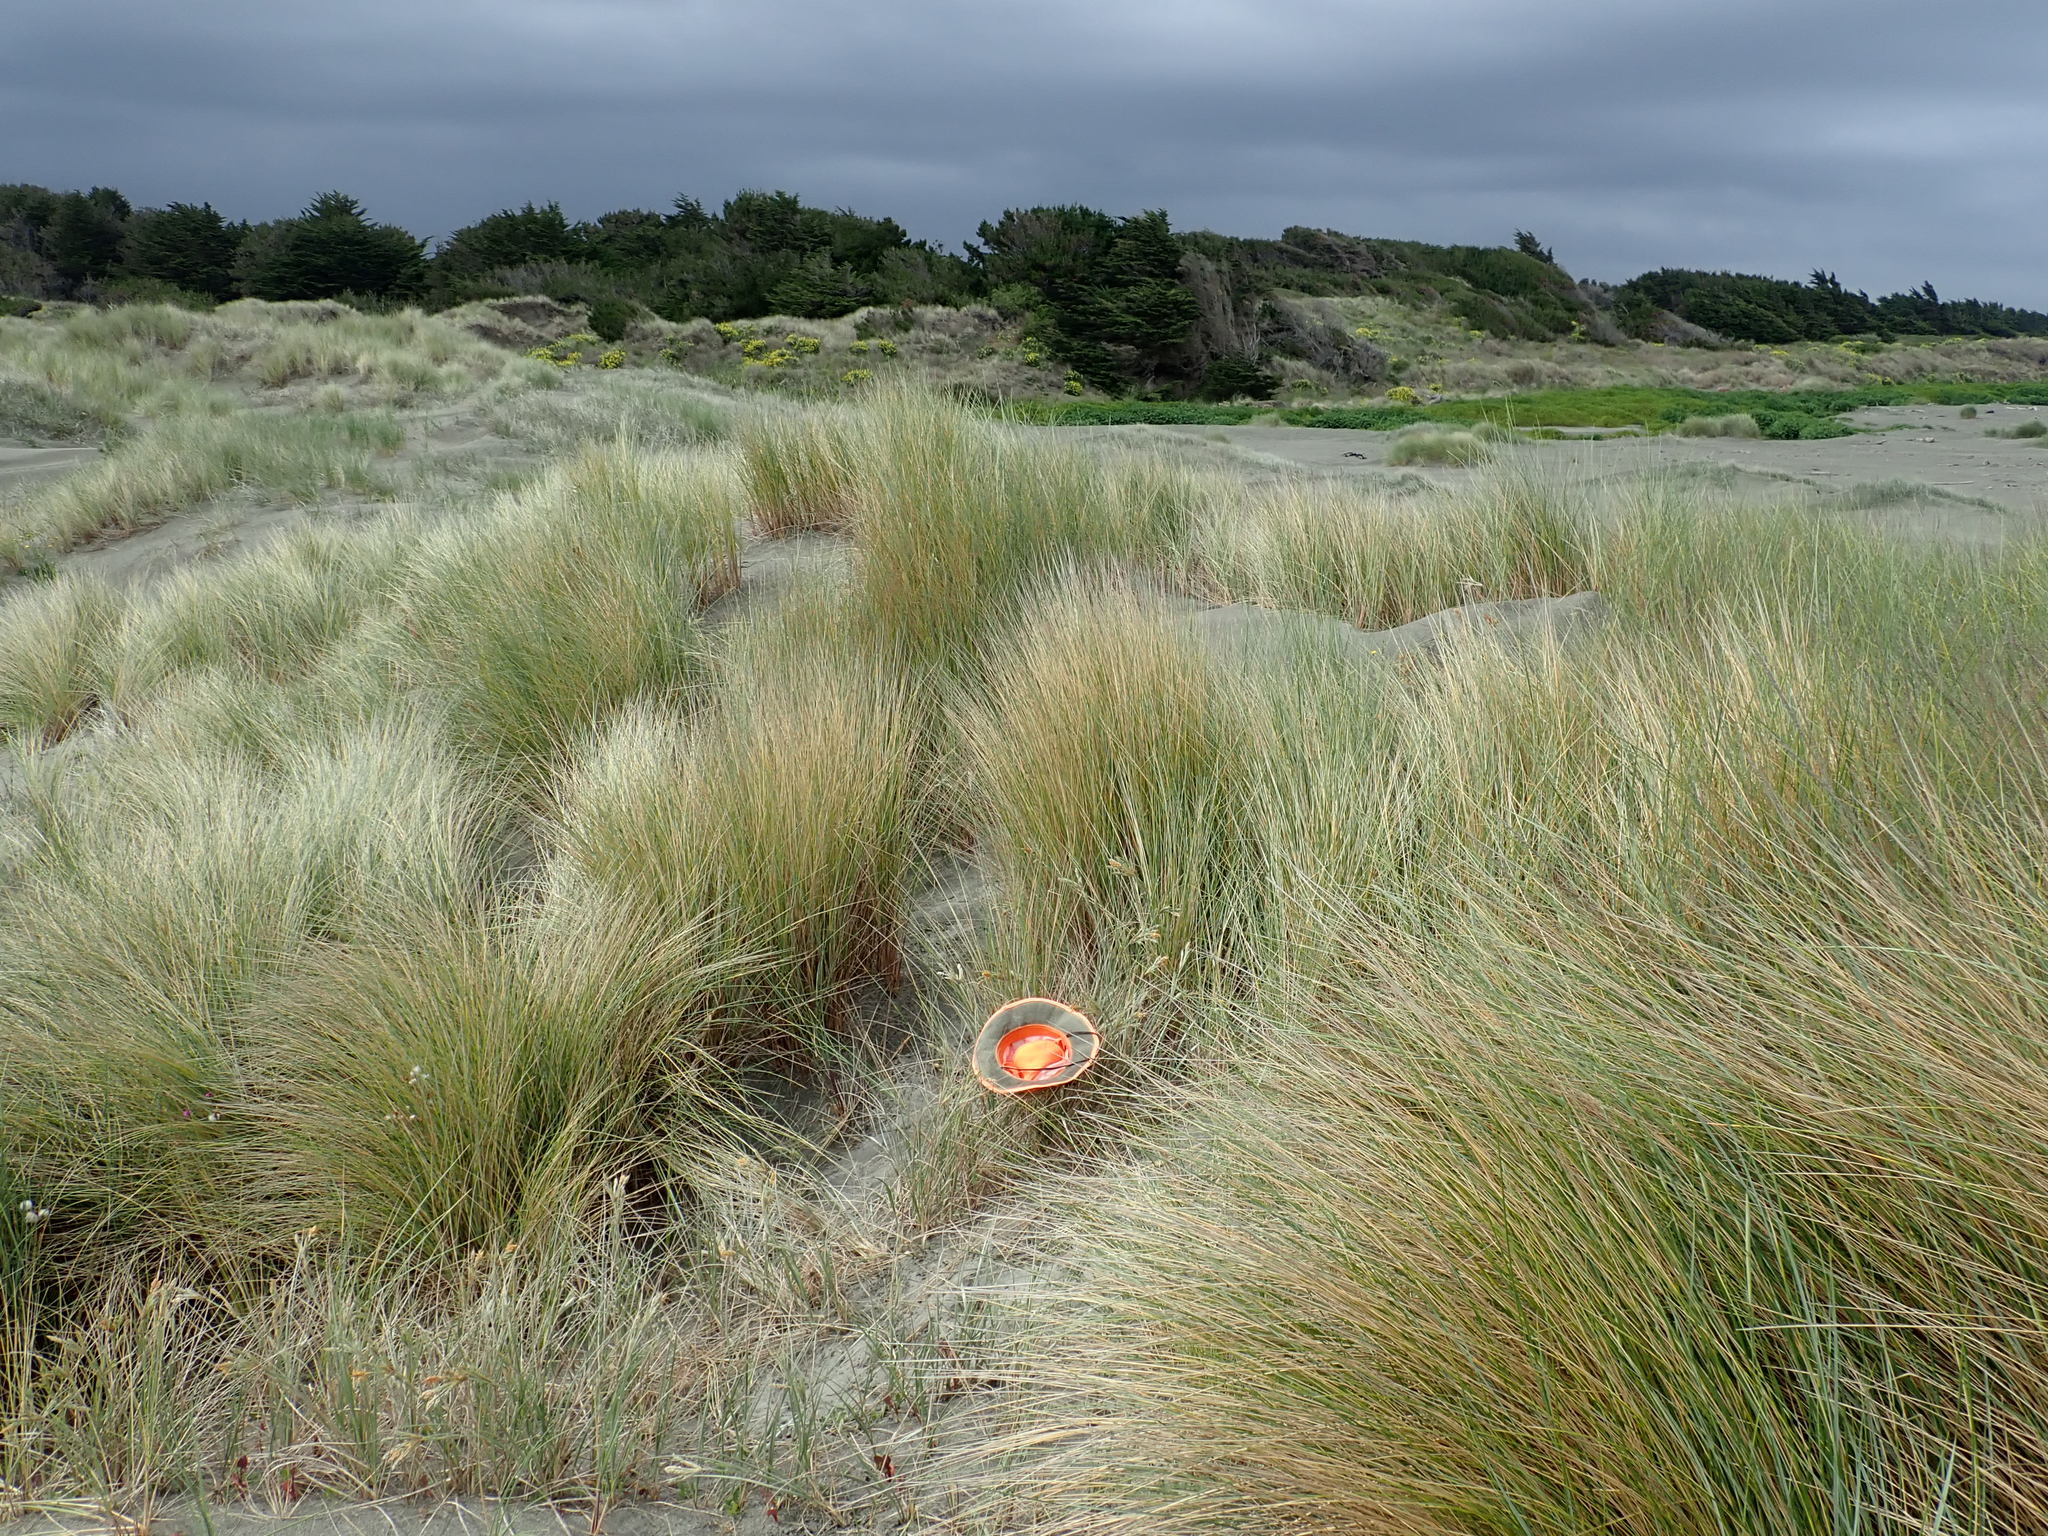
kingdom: Plantae
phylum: Tracheophyta
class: Liliopsida
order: Poales
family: Poaceae
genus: Spinifex
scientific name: Spinifex sericeus
